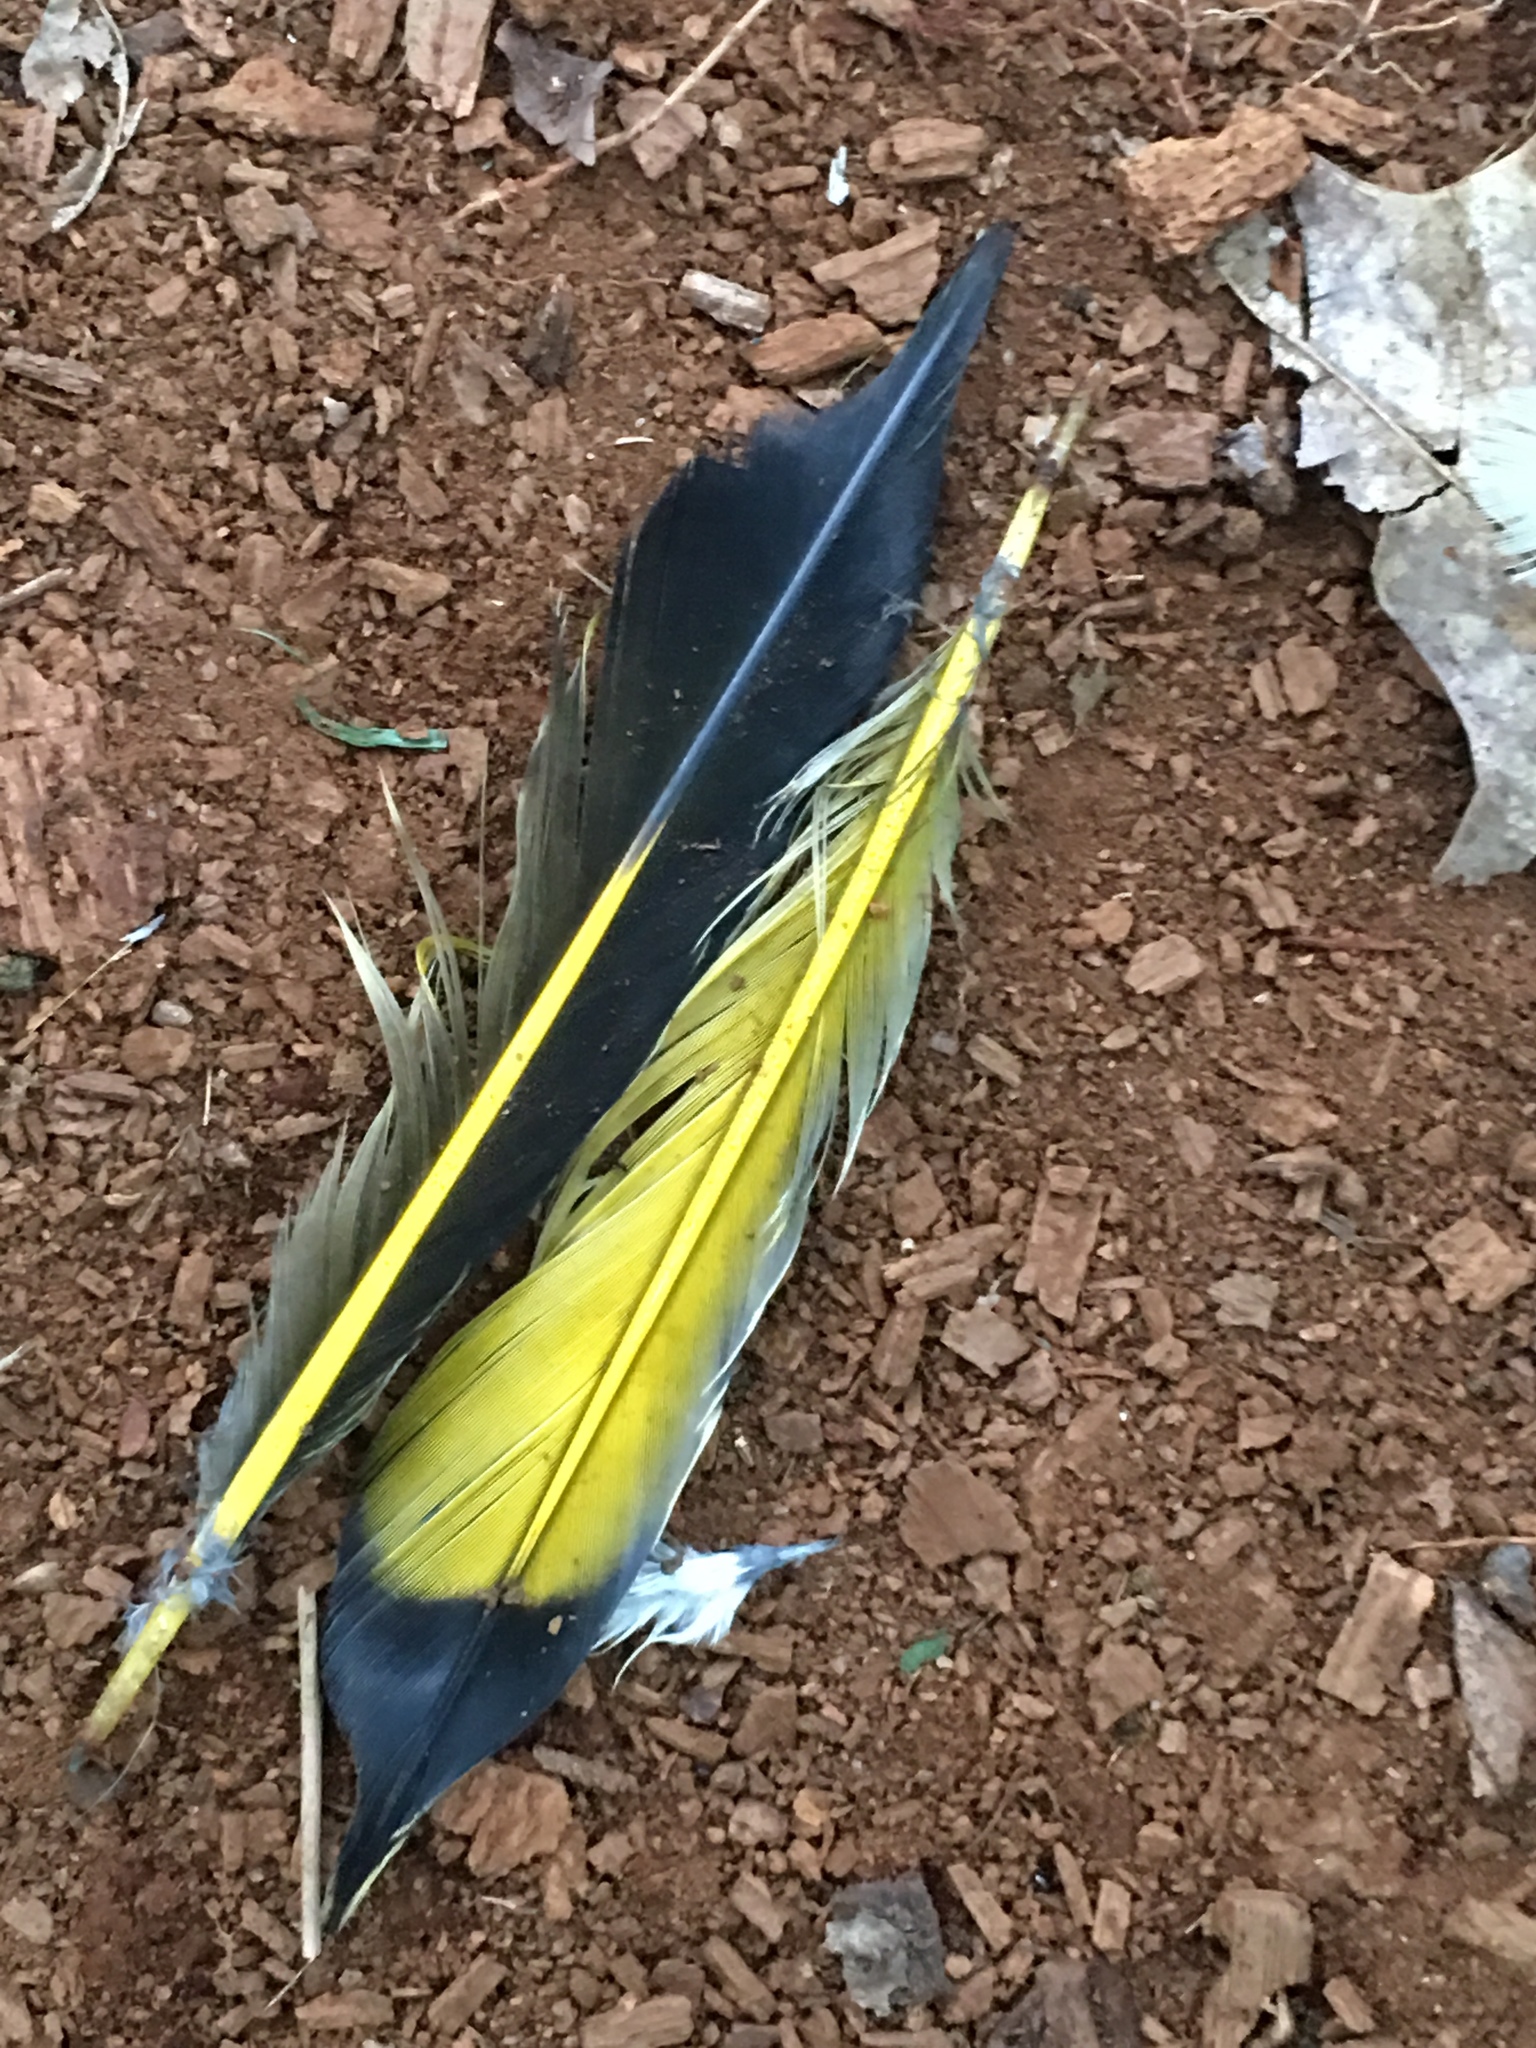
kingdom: Animalia
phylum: Chordata
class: Aves
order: Piciformes
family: Picidae
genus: Colaptes
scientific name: Colaptes auratus
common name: Northern flicker
